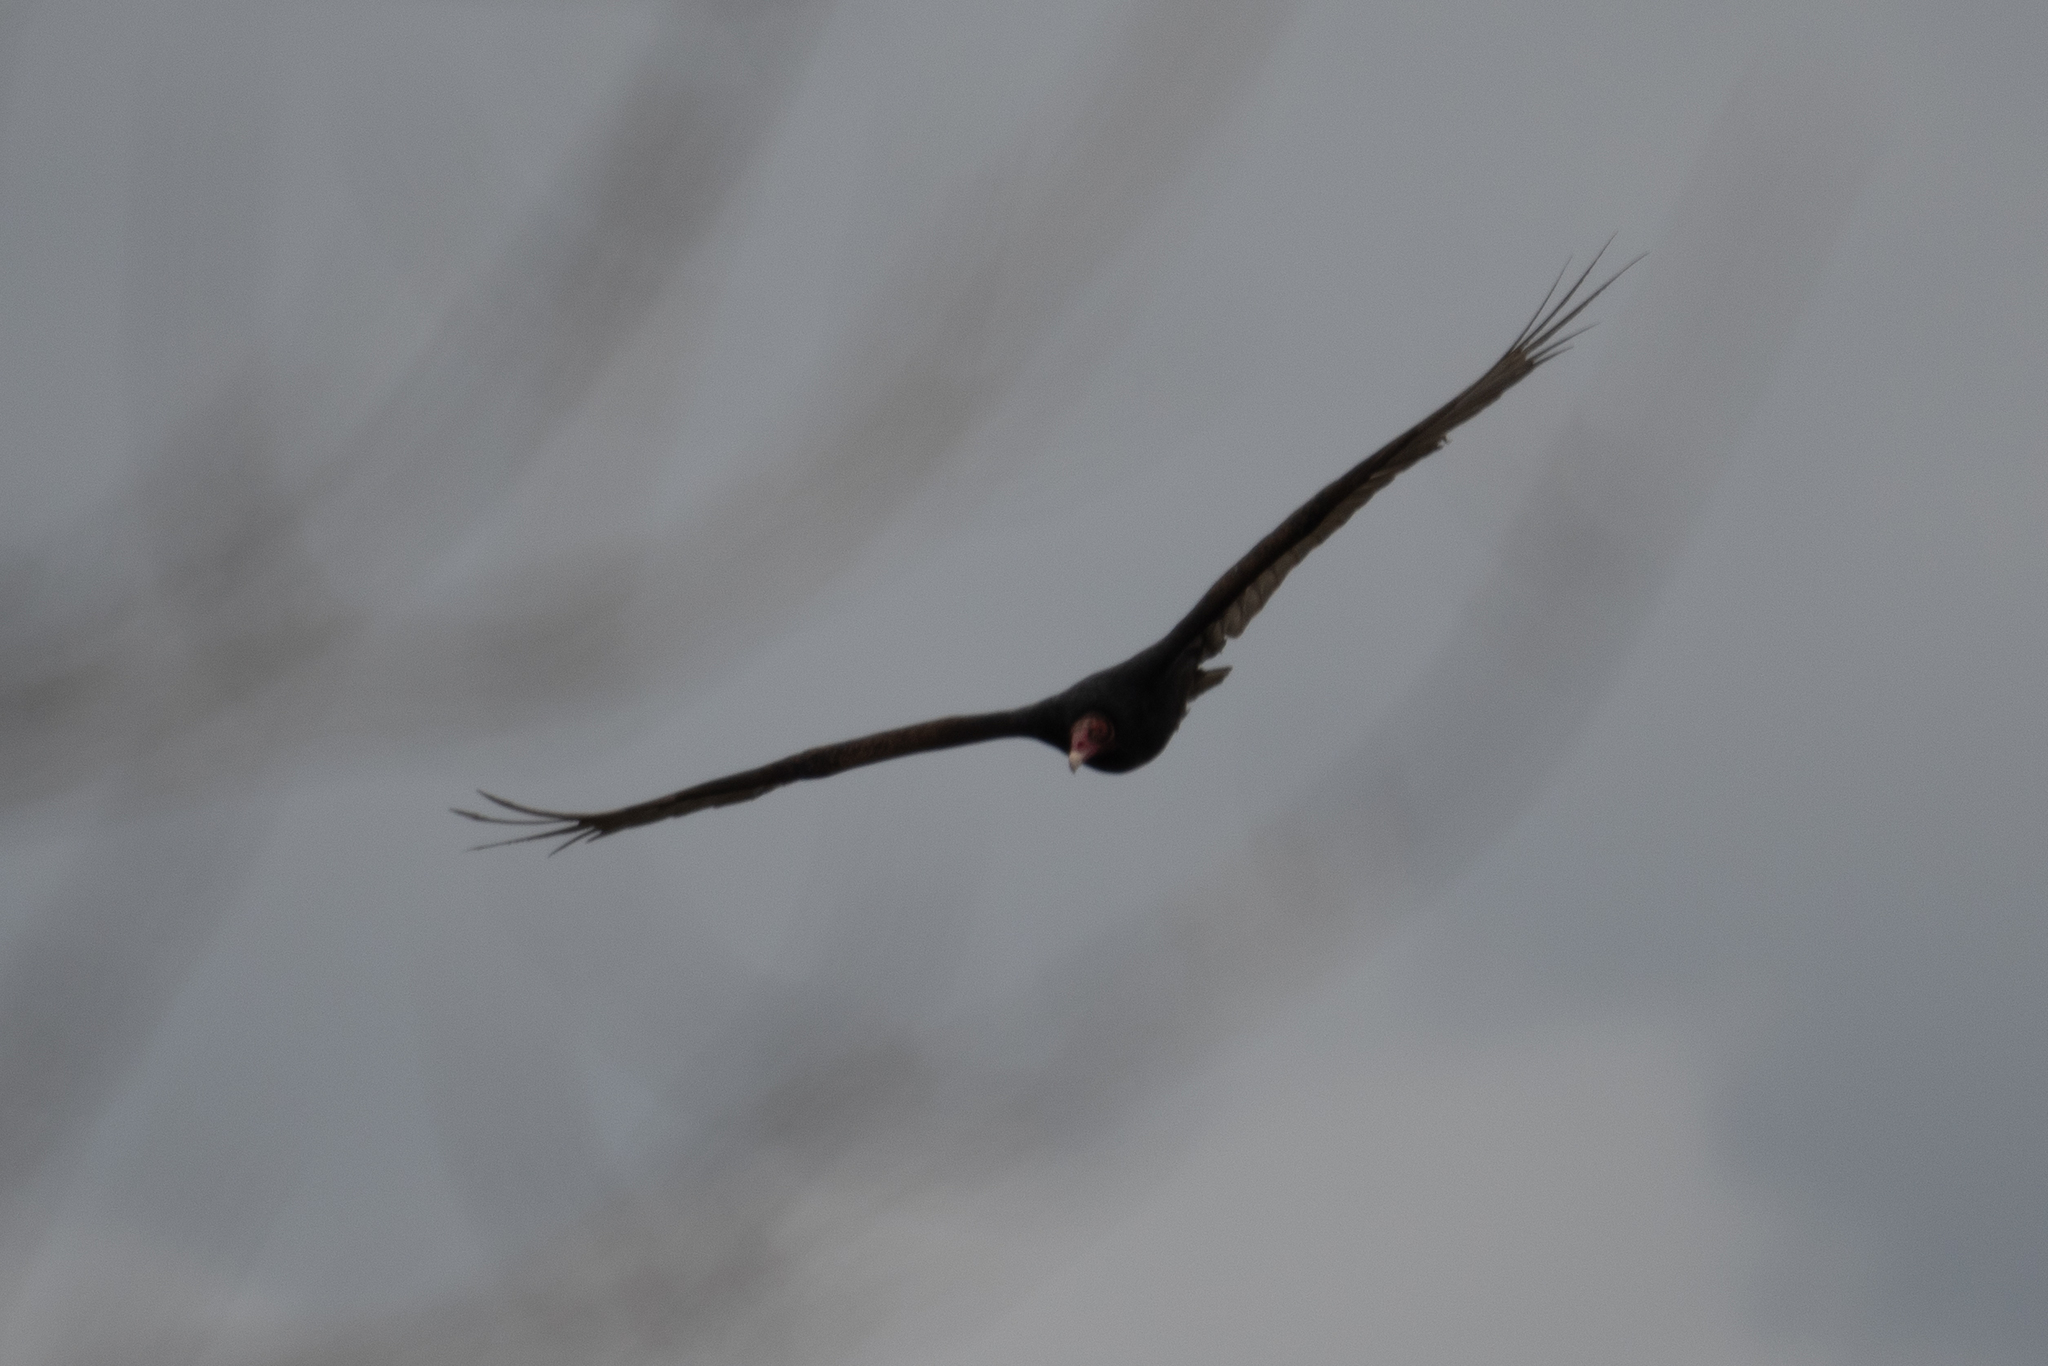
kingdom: Animalia
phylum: Chordata
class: Aves
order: Accipitriformes
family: Cathartidae
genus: Cathartes
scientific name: Cathartes aura
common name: Turkey vulture
